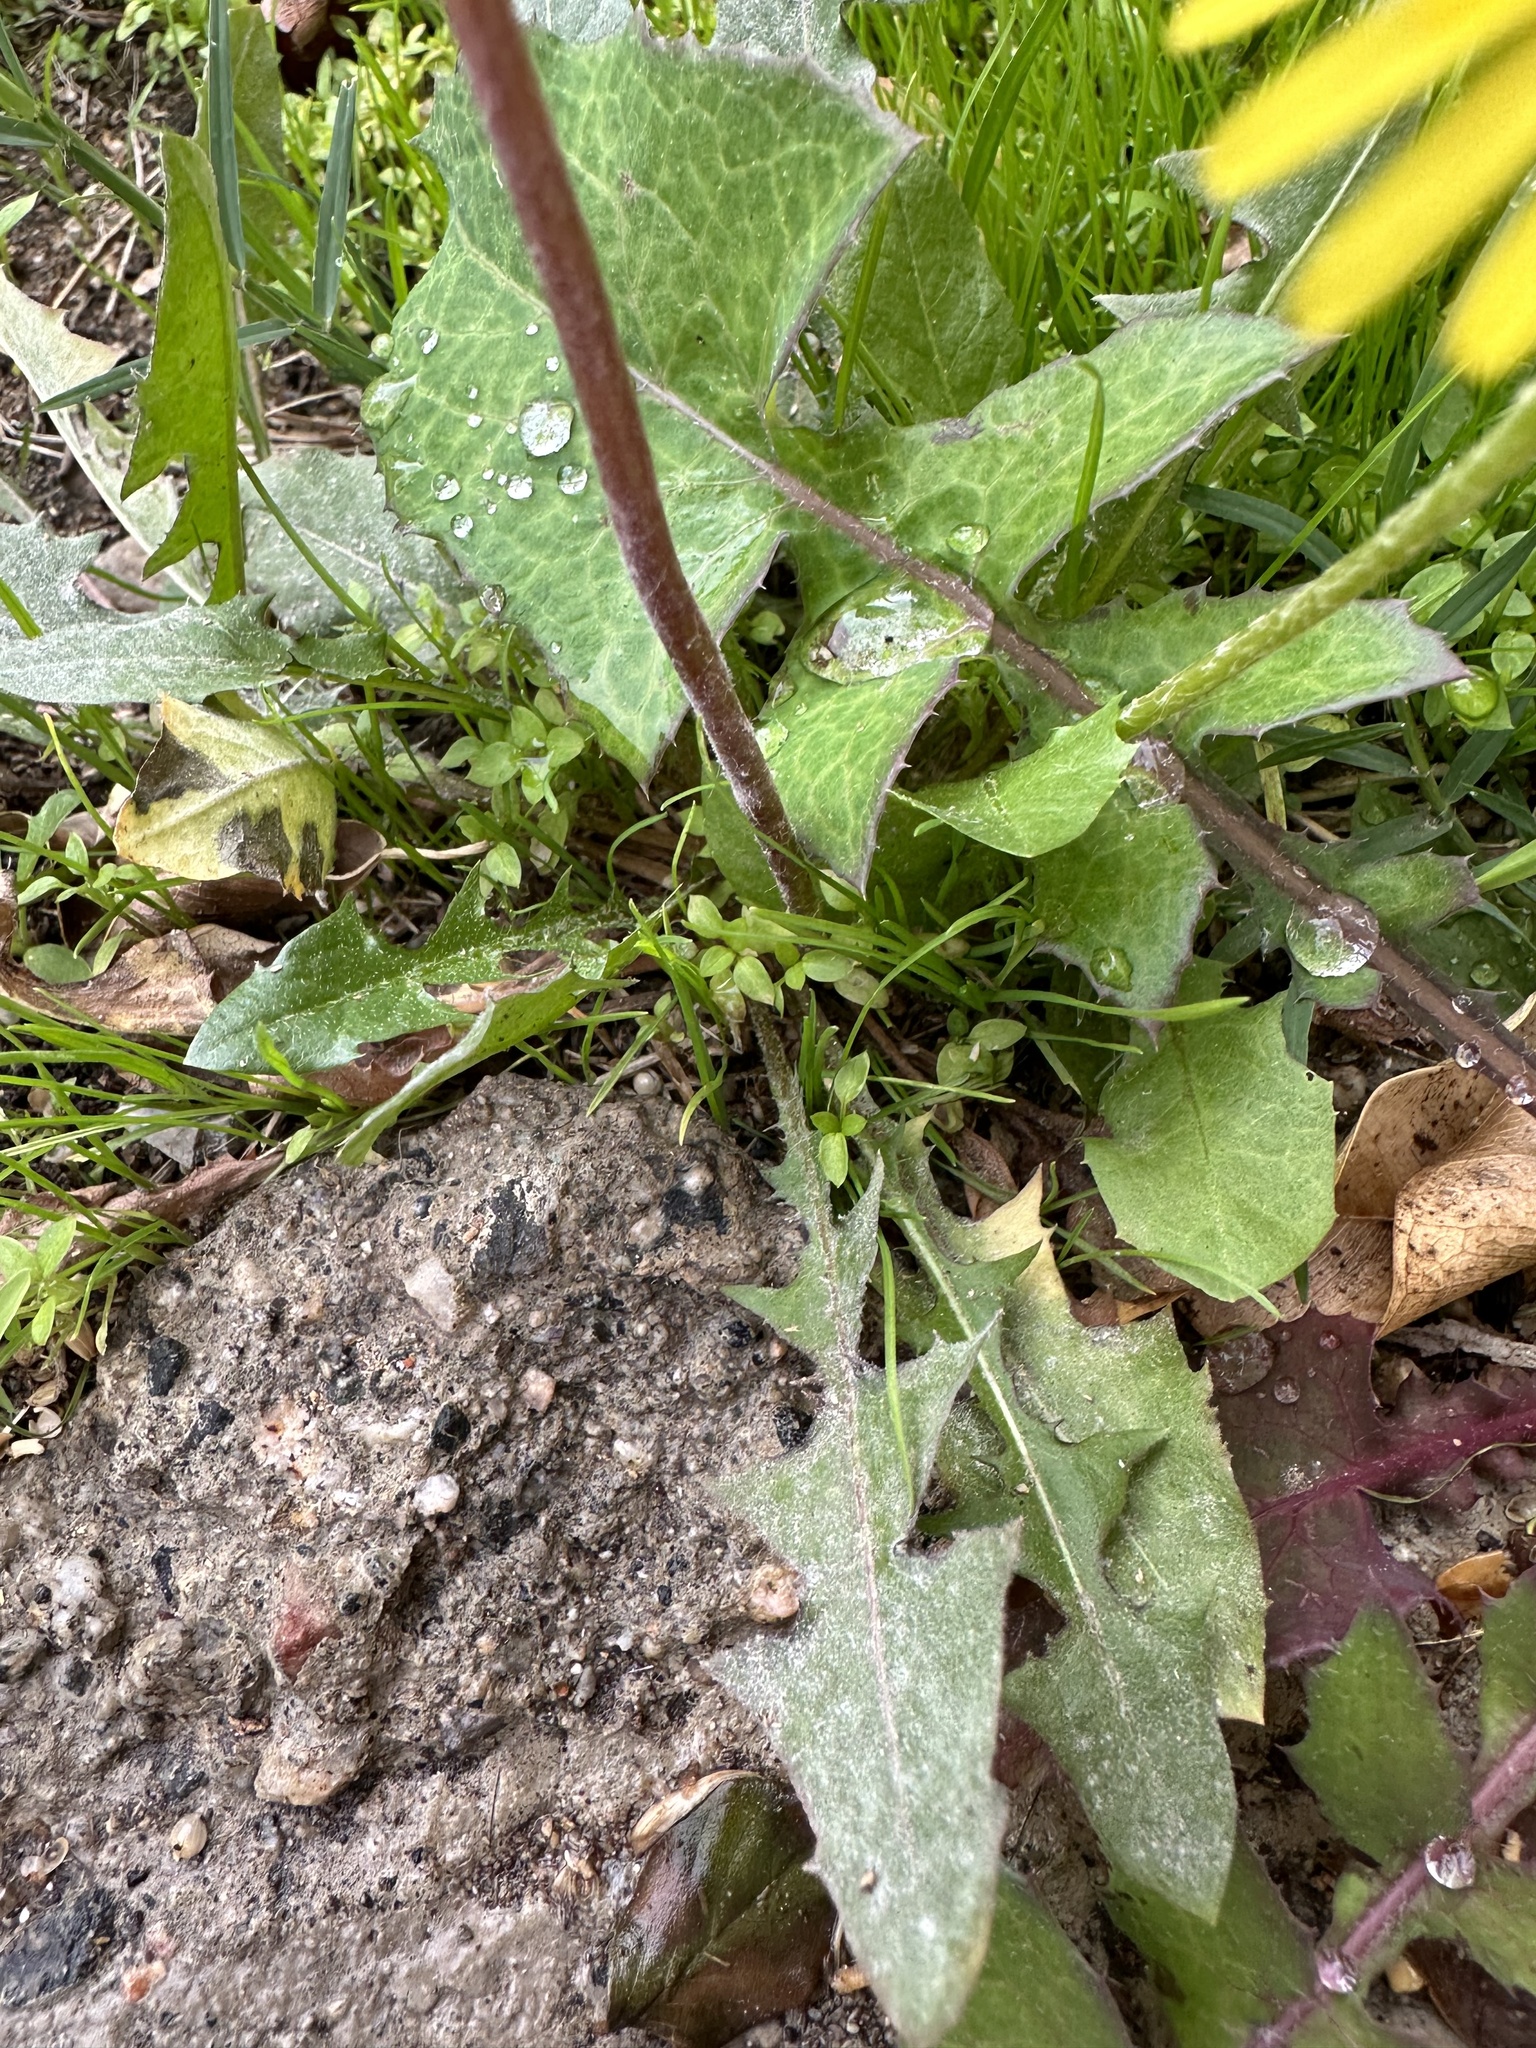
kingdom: Plantae
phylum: Tracheophyta
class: Magnoliopsida
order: Asterales
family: Asteraceae
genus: Taraxacum
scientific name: Taraxacum
